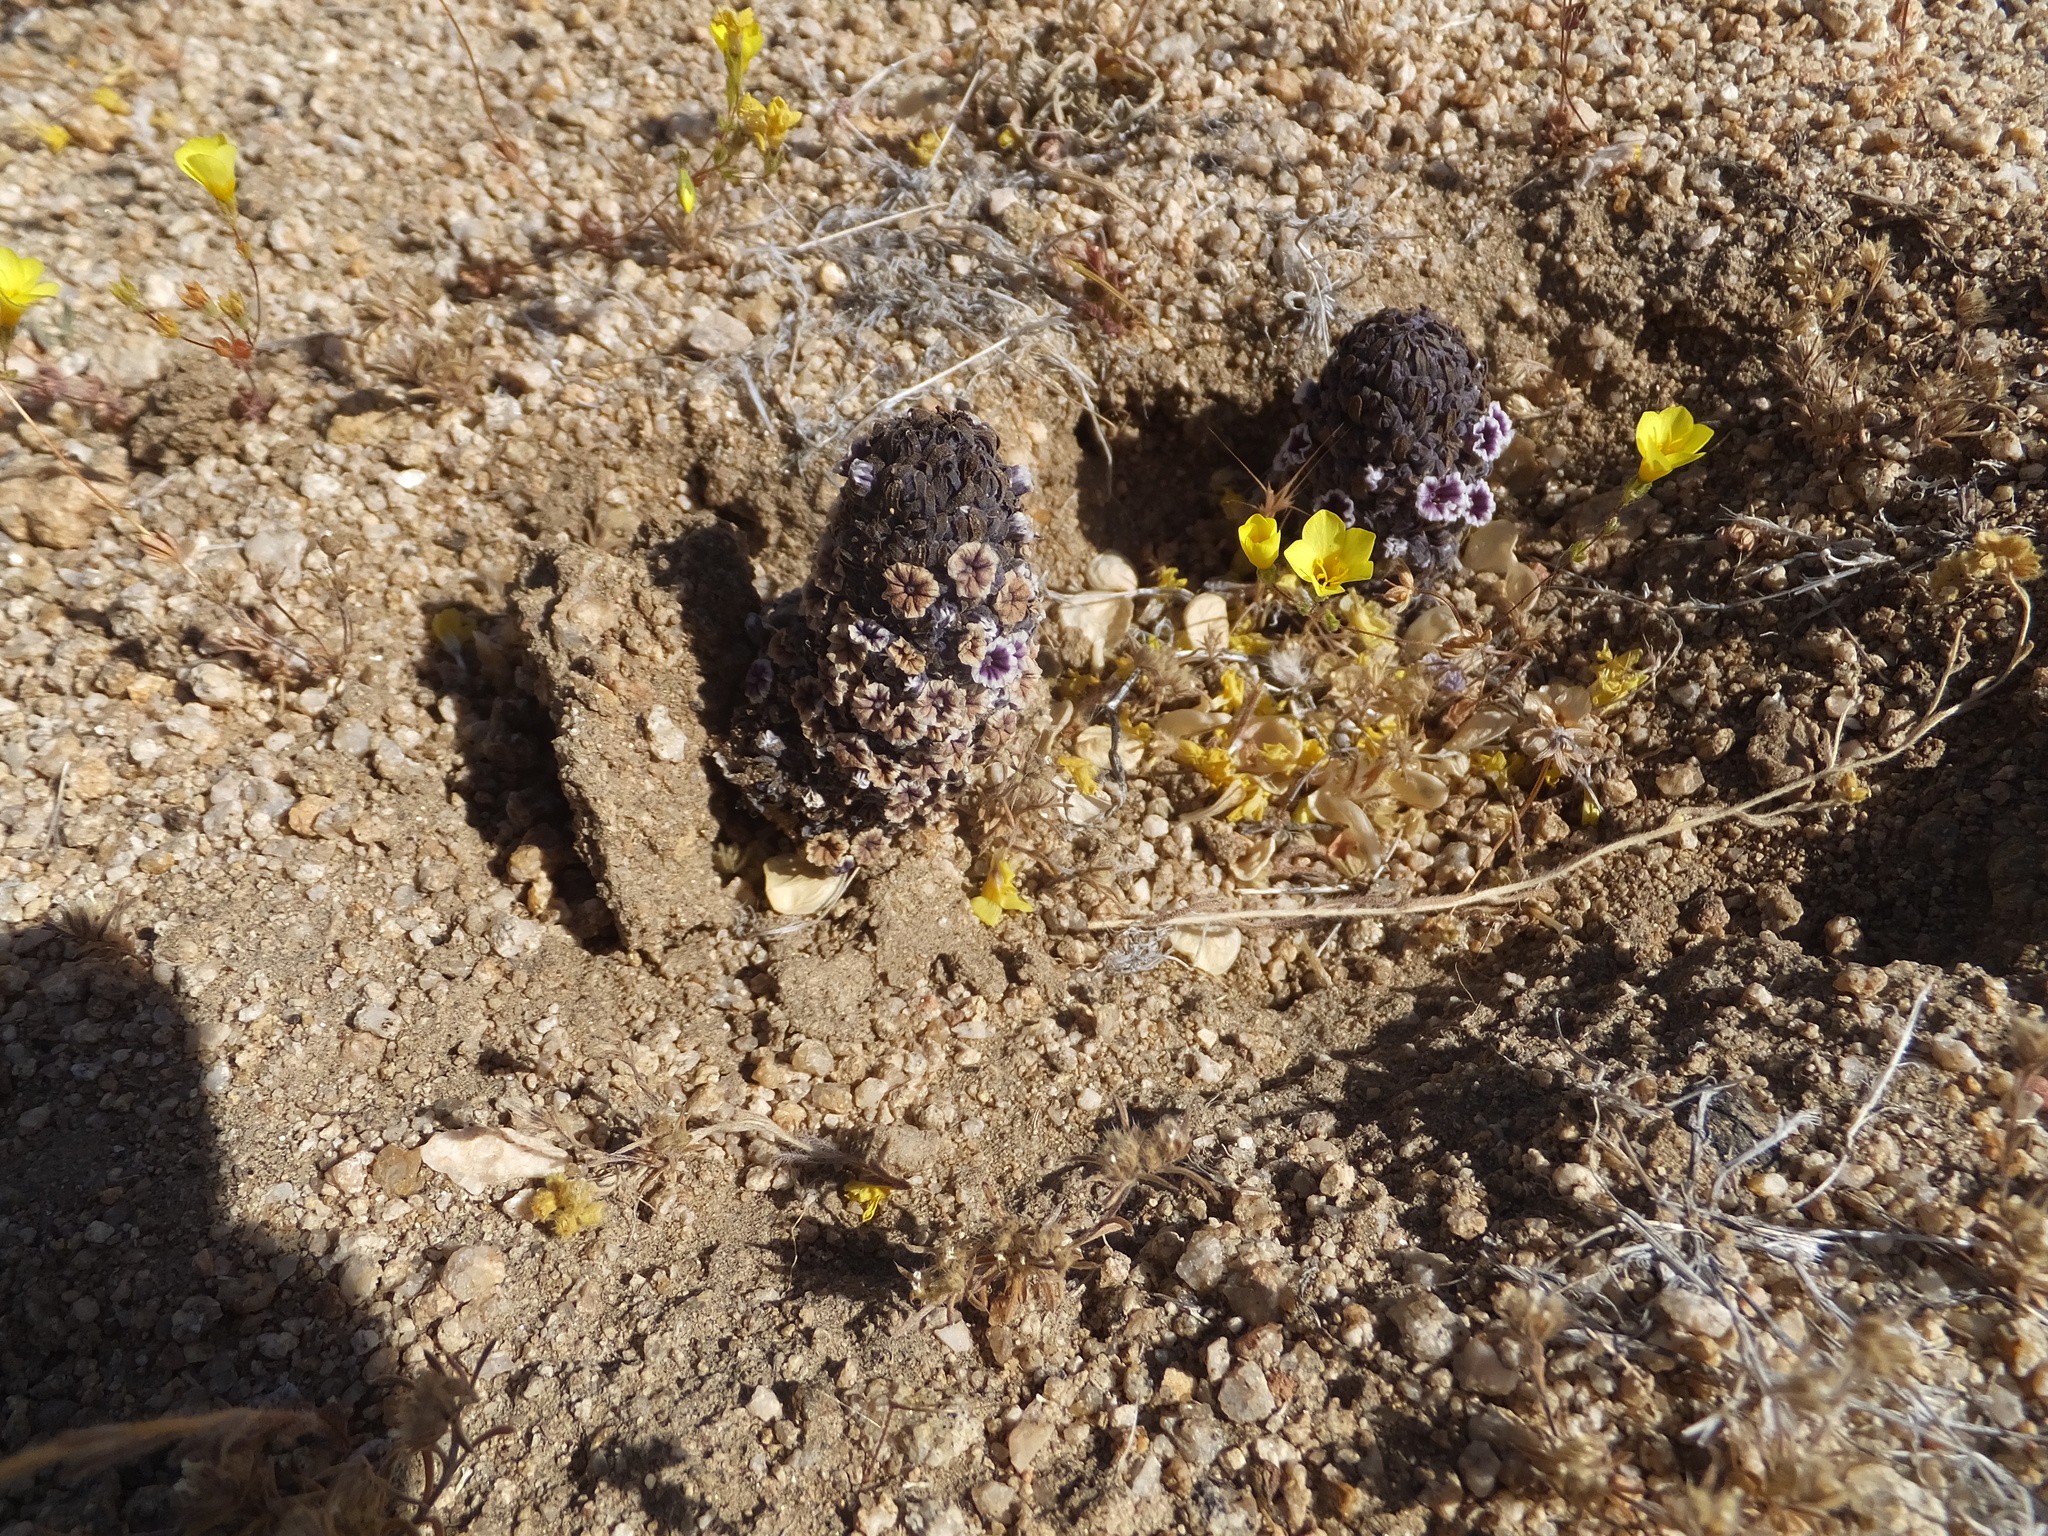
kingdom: Plantae
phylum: Tracheophyta
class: Magnoliopsida
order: Boraginales
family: Lennoaceae
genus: Pholisma
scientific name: Pholisma arenarium
